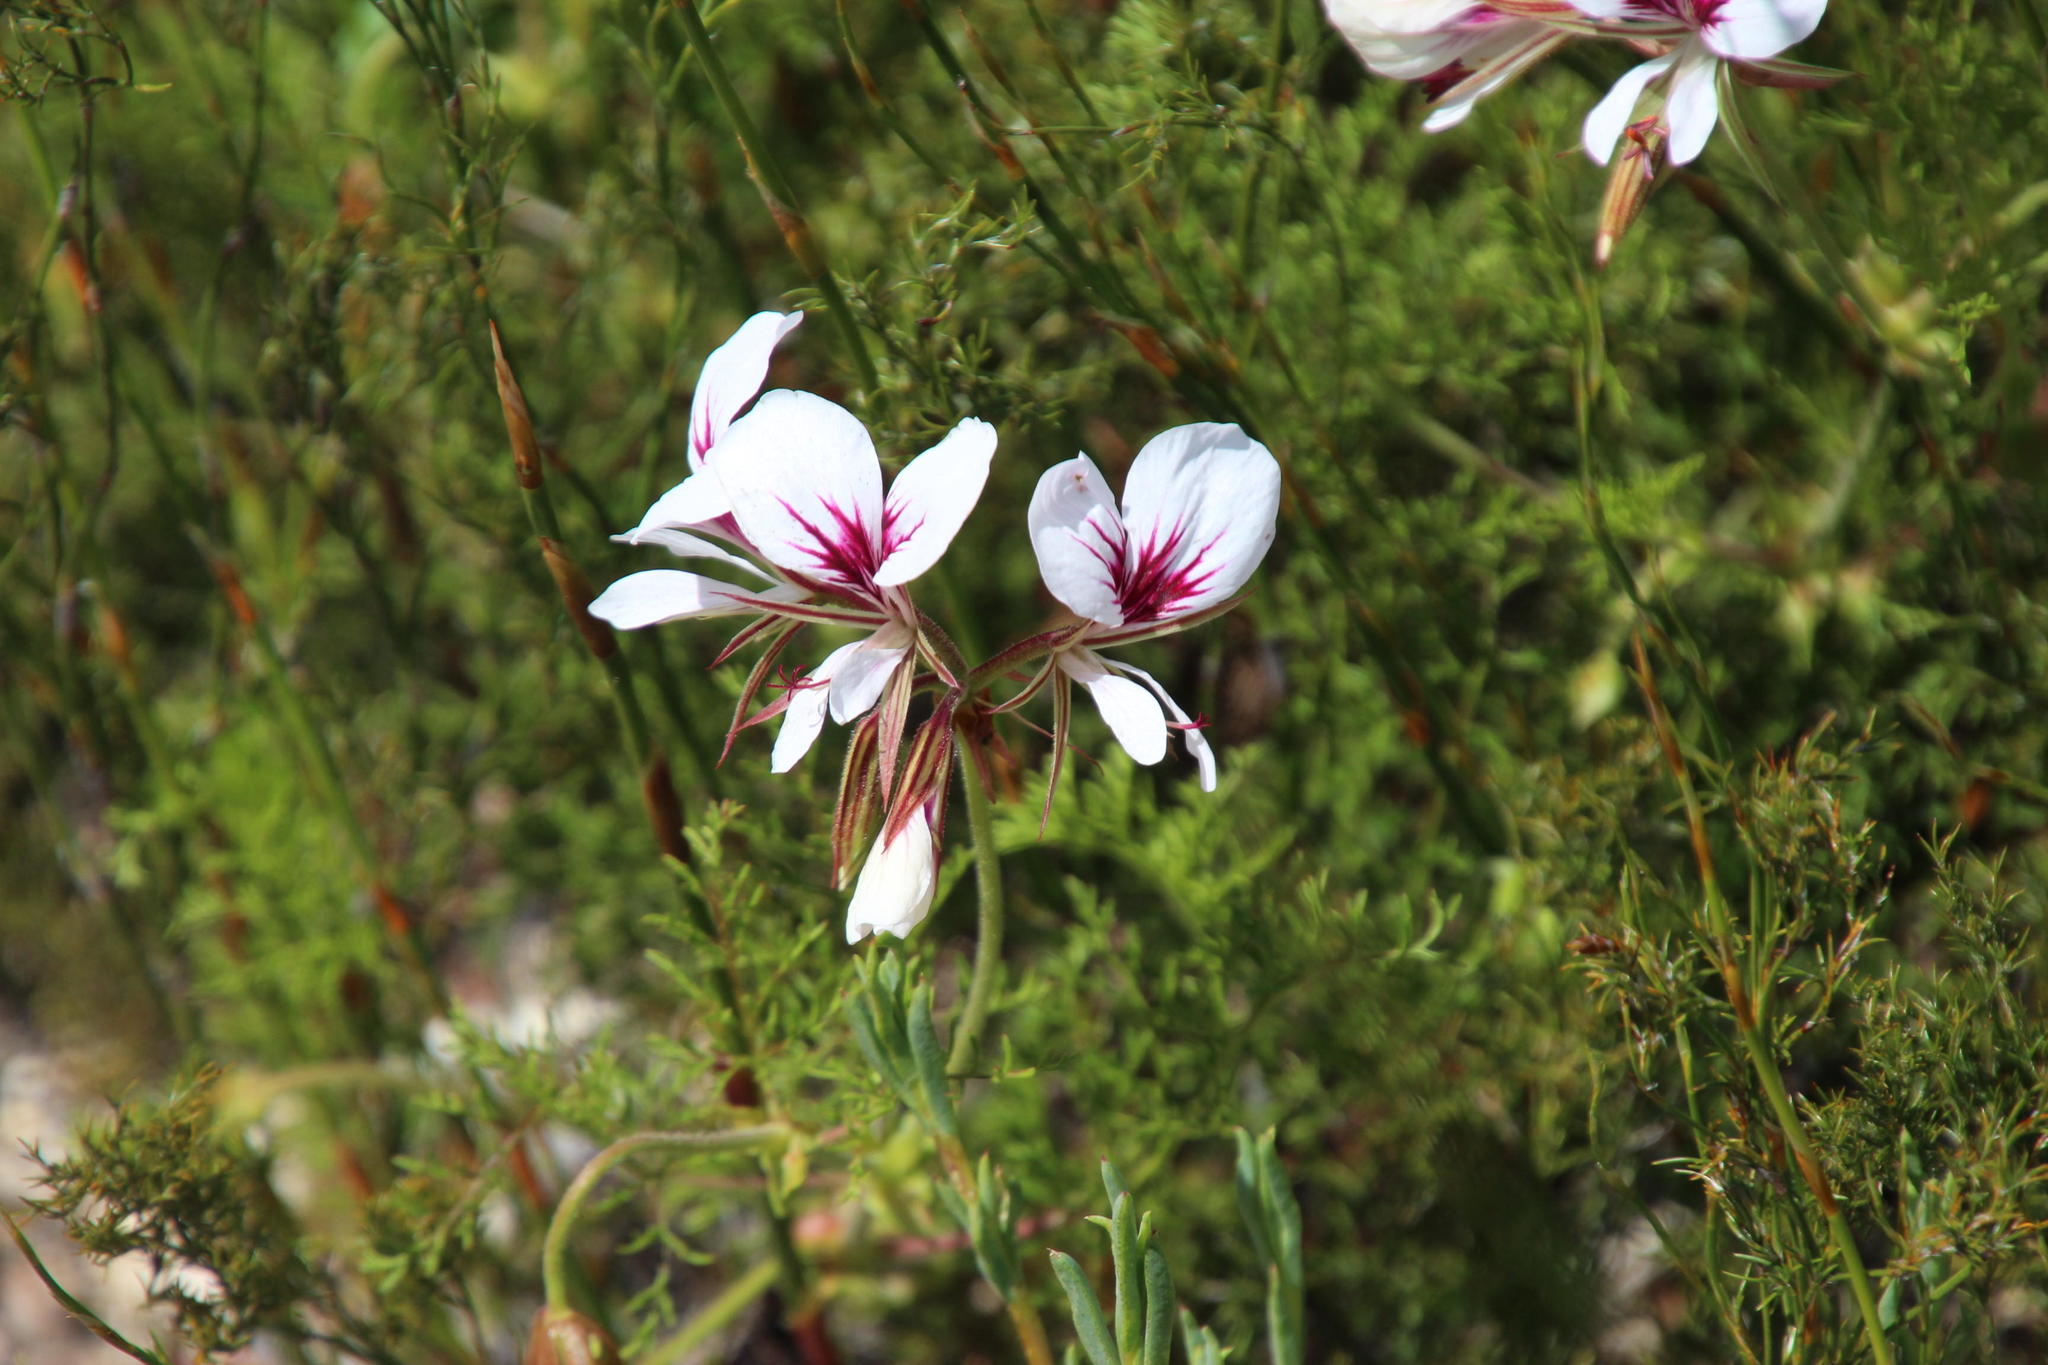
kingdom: Plantae
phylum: Tracheophyta
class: Magnoliopsida
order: Geraniales
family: Geraniaceae
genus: Pelargonium
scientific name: Pelargonium myrrhifolium
